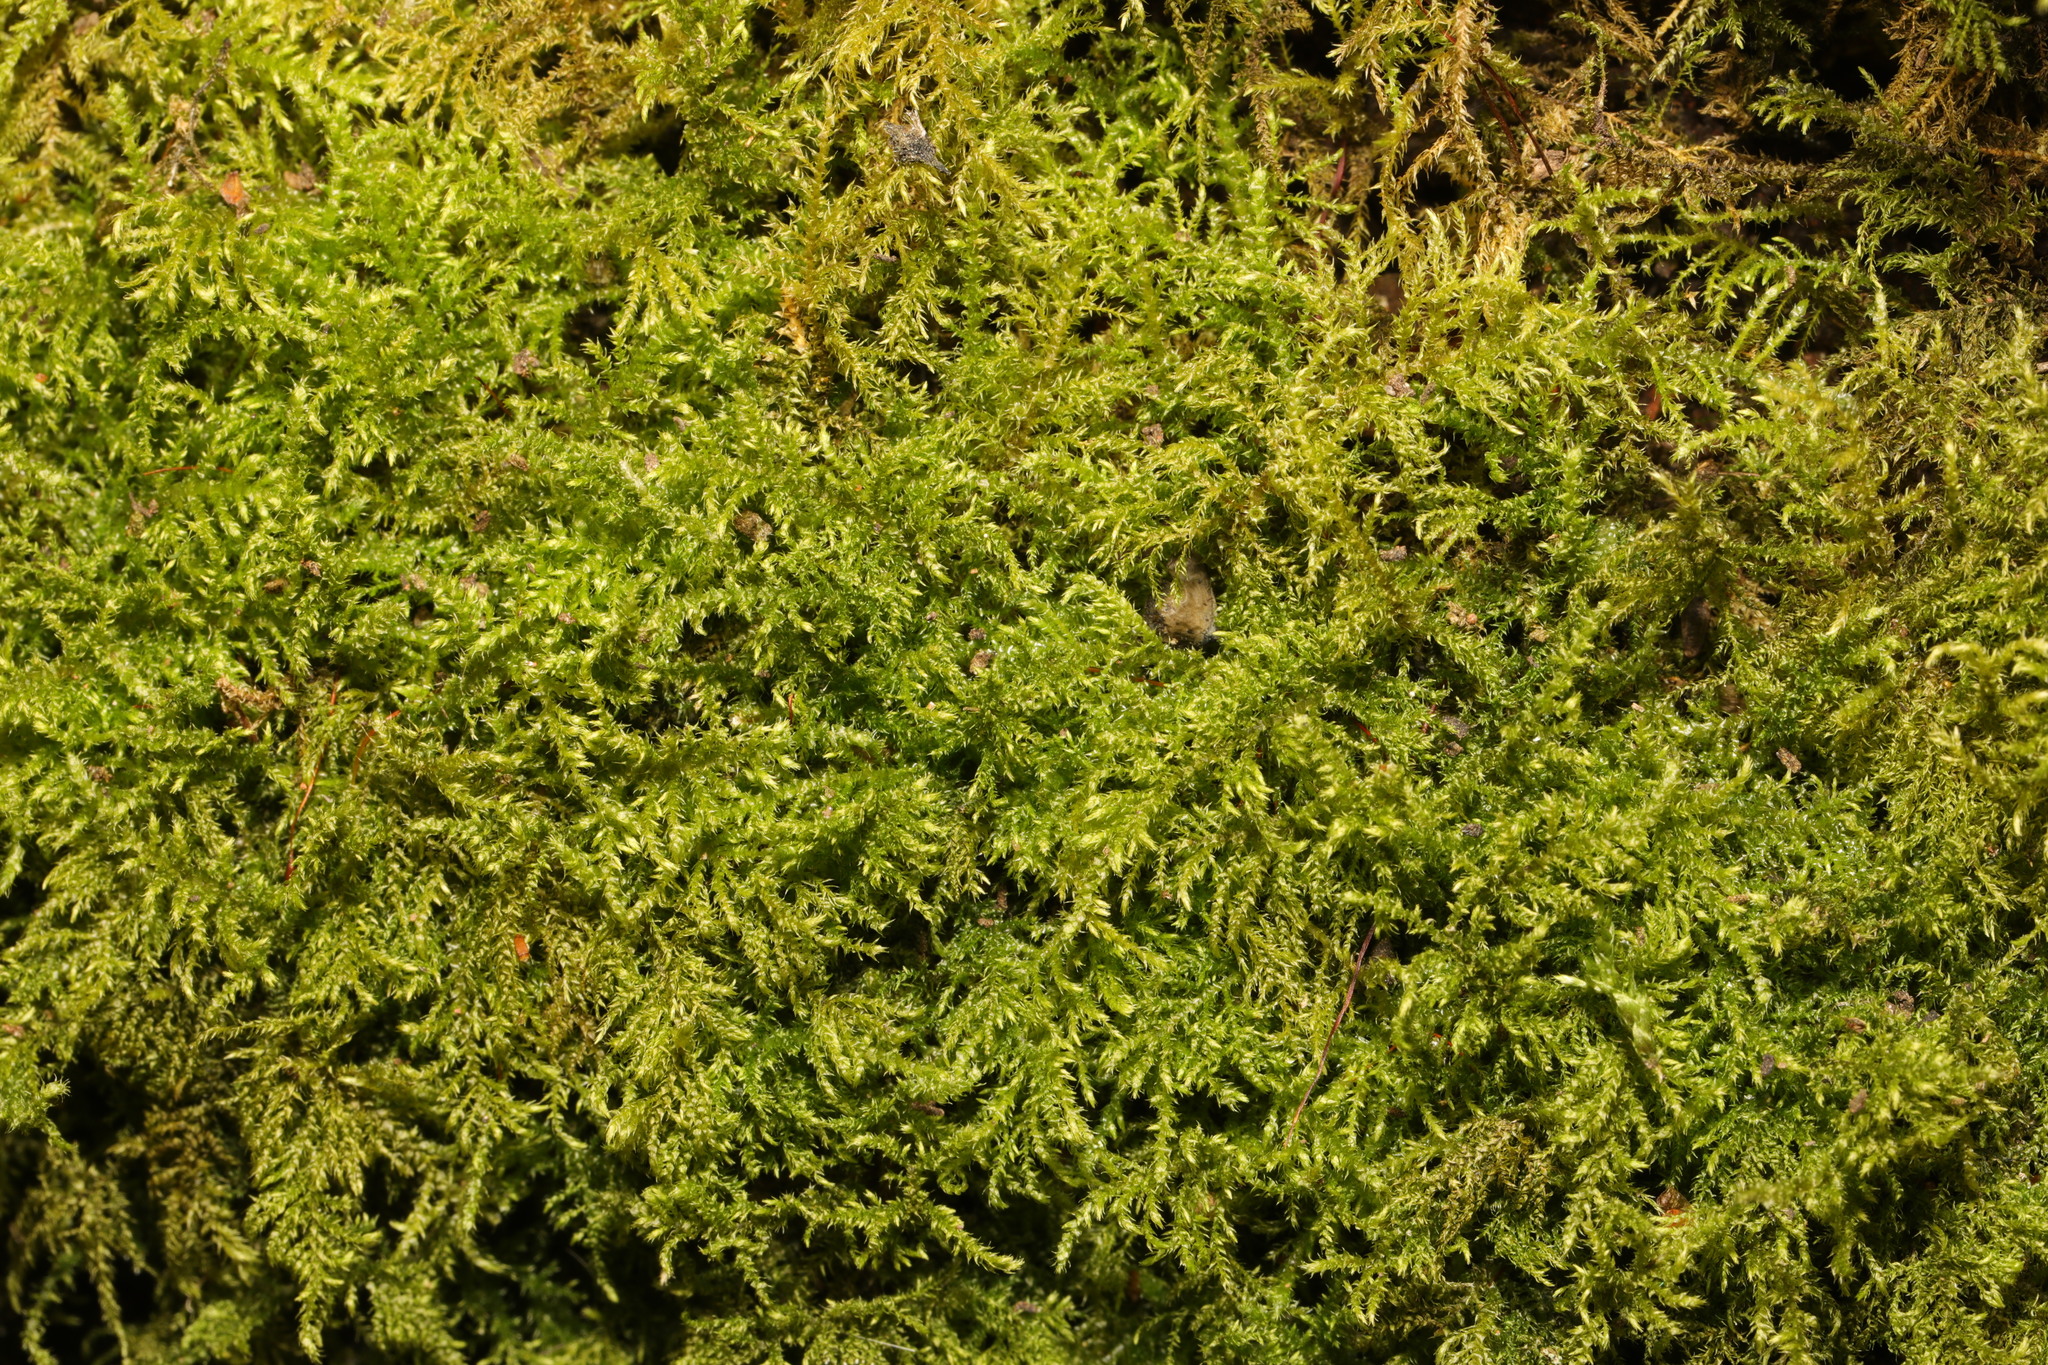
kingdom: Plantae
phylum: Bryophyta
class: Bryopsida
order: Hypnales
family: Brachytheciaceae
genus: Kindbergia
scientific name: Kindbergia praelonga
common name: Slender beaked moss
